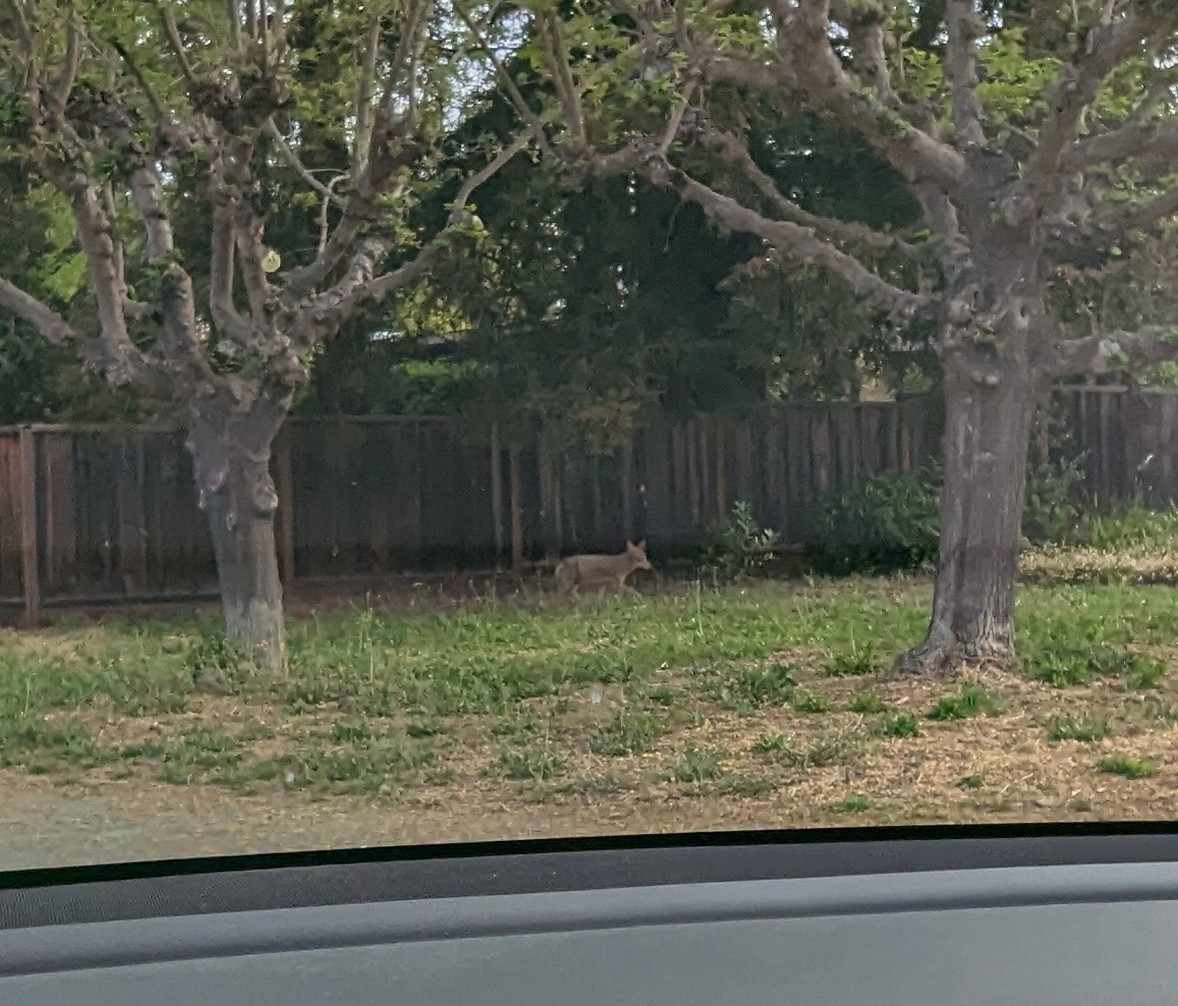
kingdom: Animalia
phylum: Chordata
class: Mammalia
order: Carnivora
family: Canidae
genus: Canis
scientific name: Canis latrans
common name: Coyote
